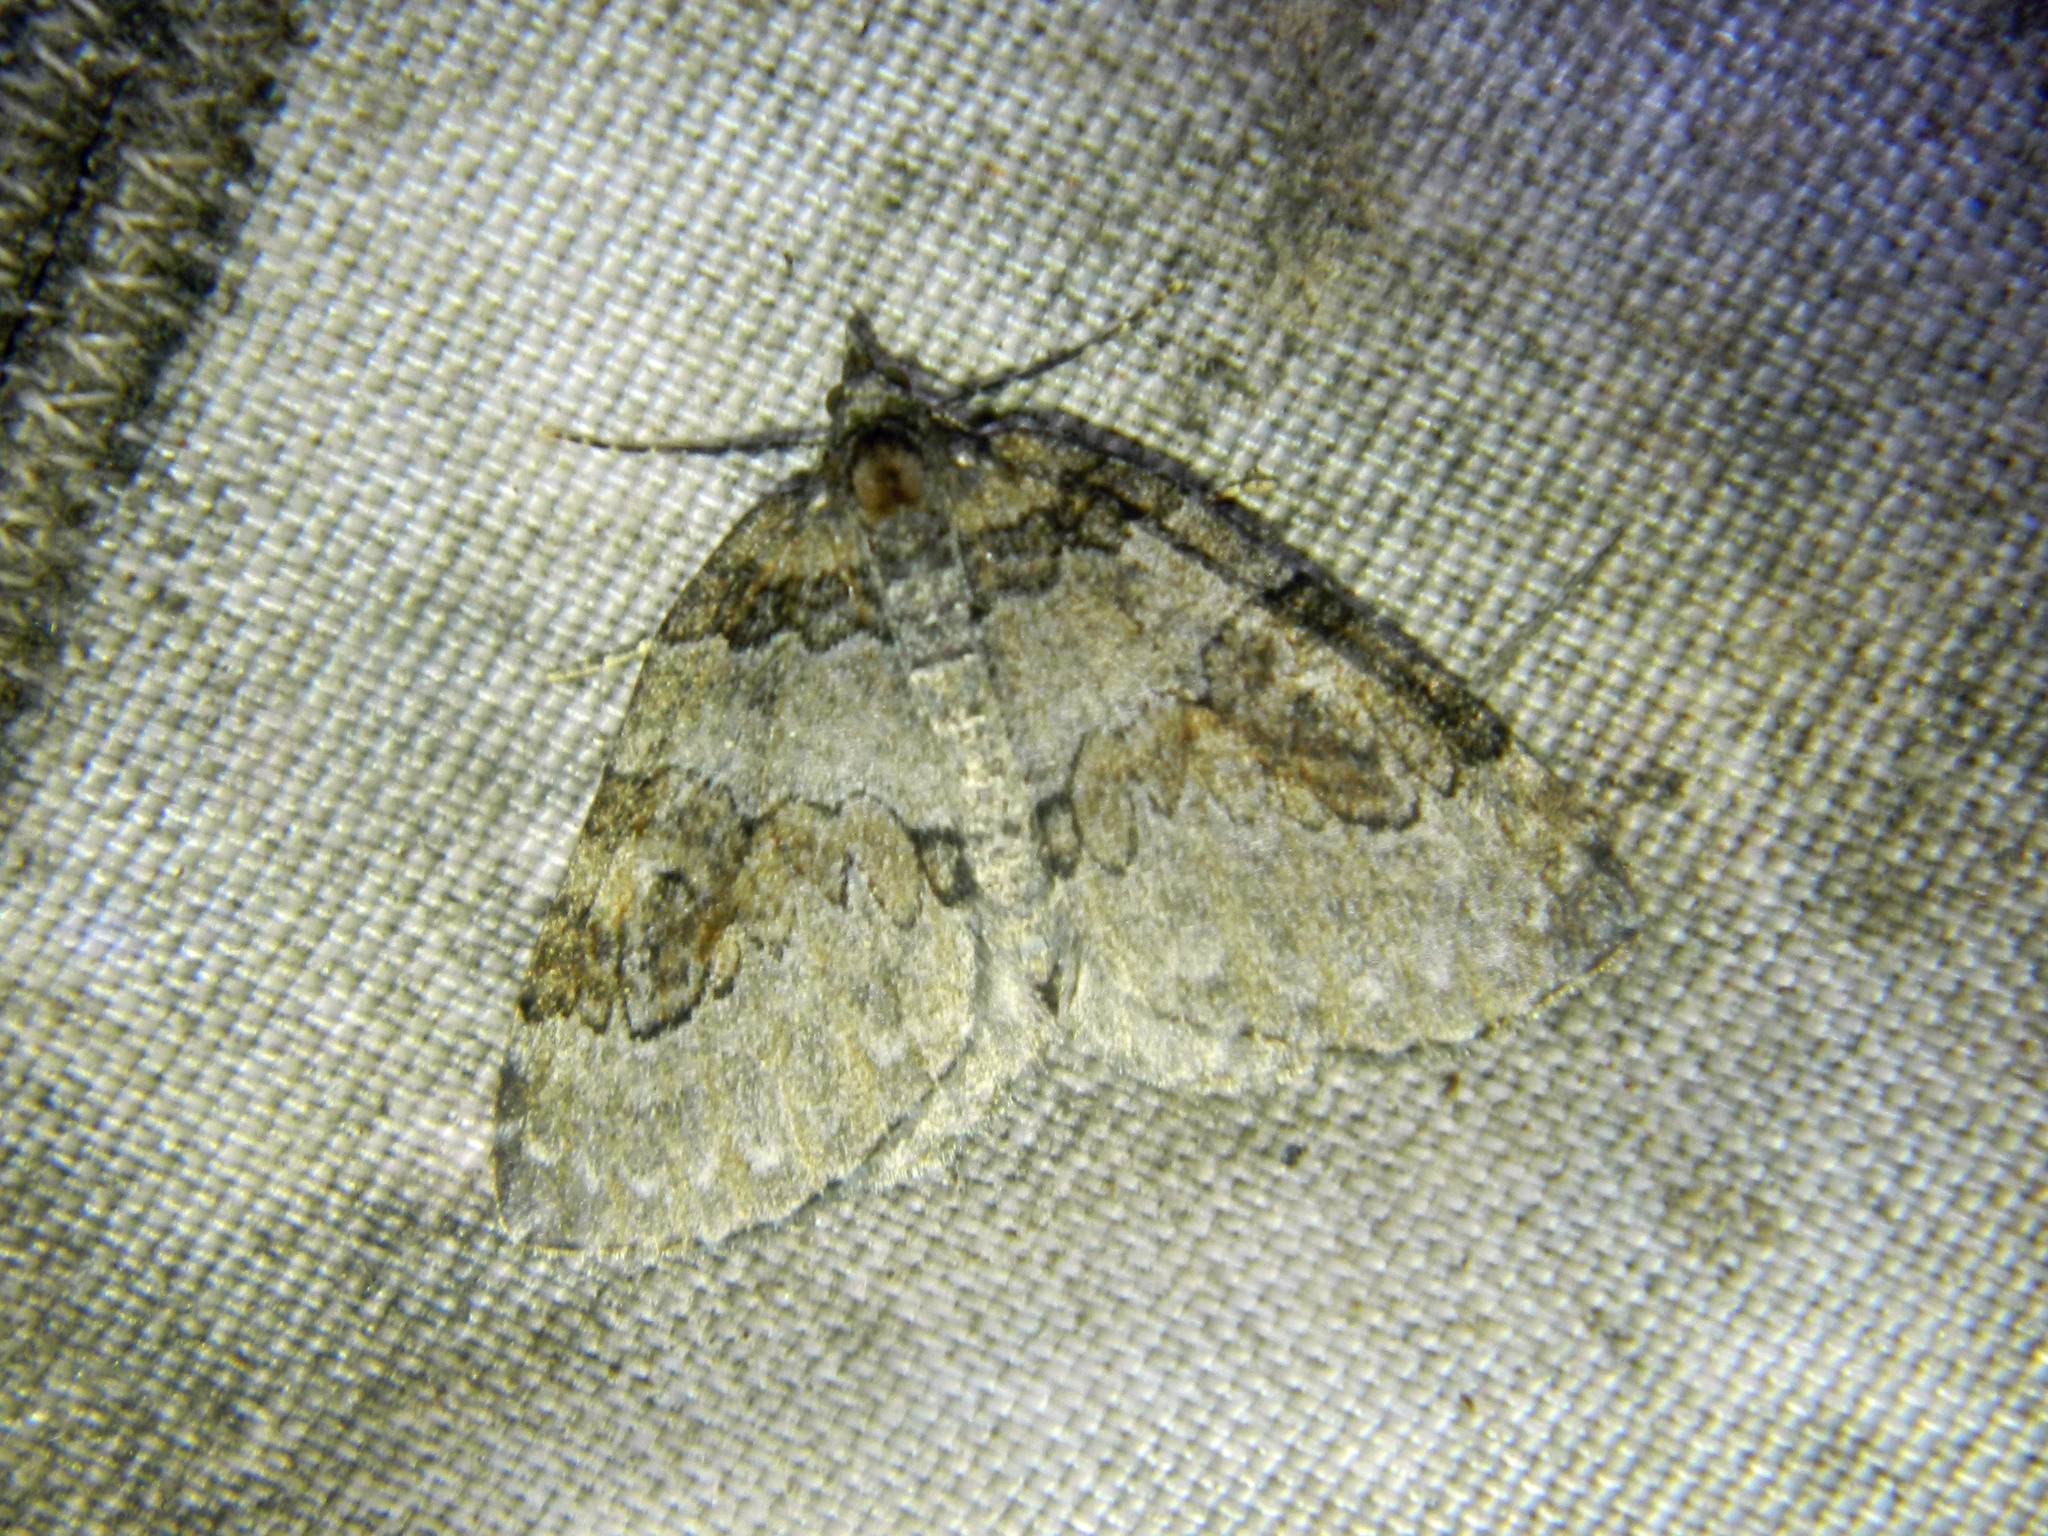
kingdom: Animalia
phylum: Arthropoda
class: Insecta
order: Lepidoptera
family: Geometridae
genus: Plemyria
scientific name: Plemyria georgii
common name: George's carpet moth
